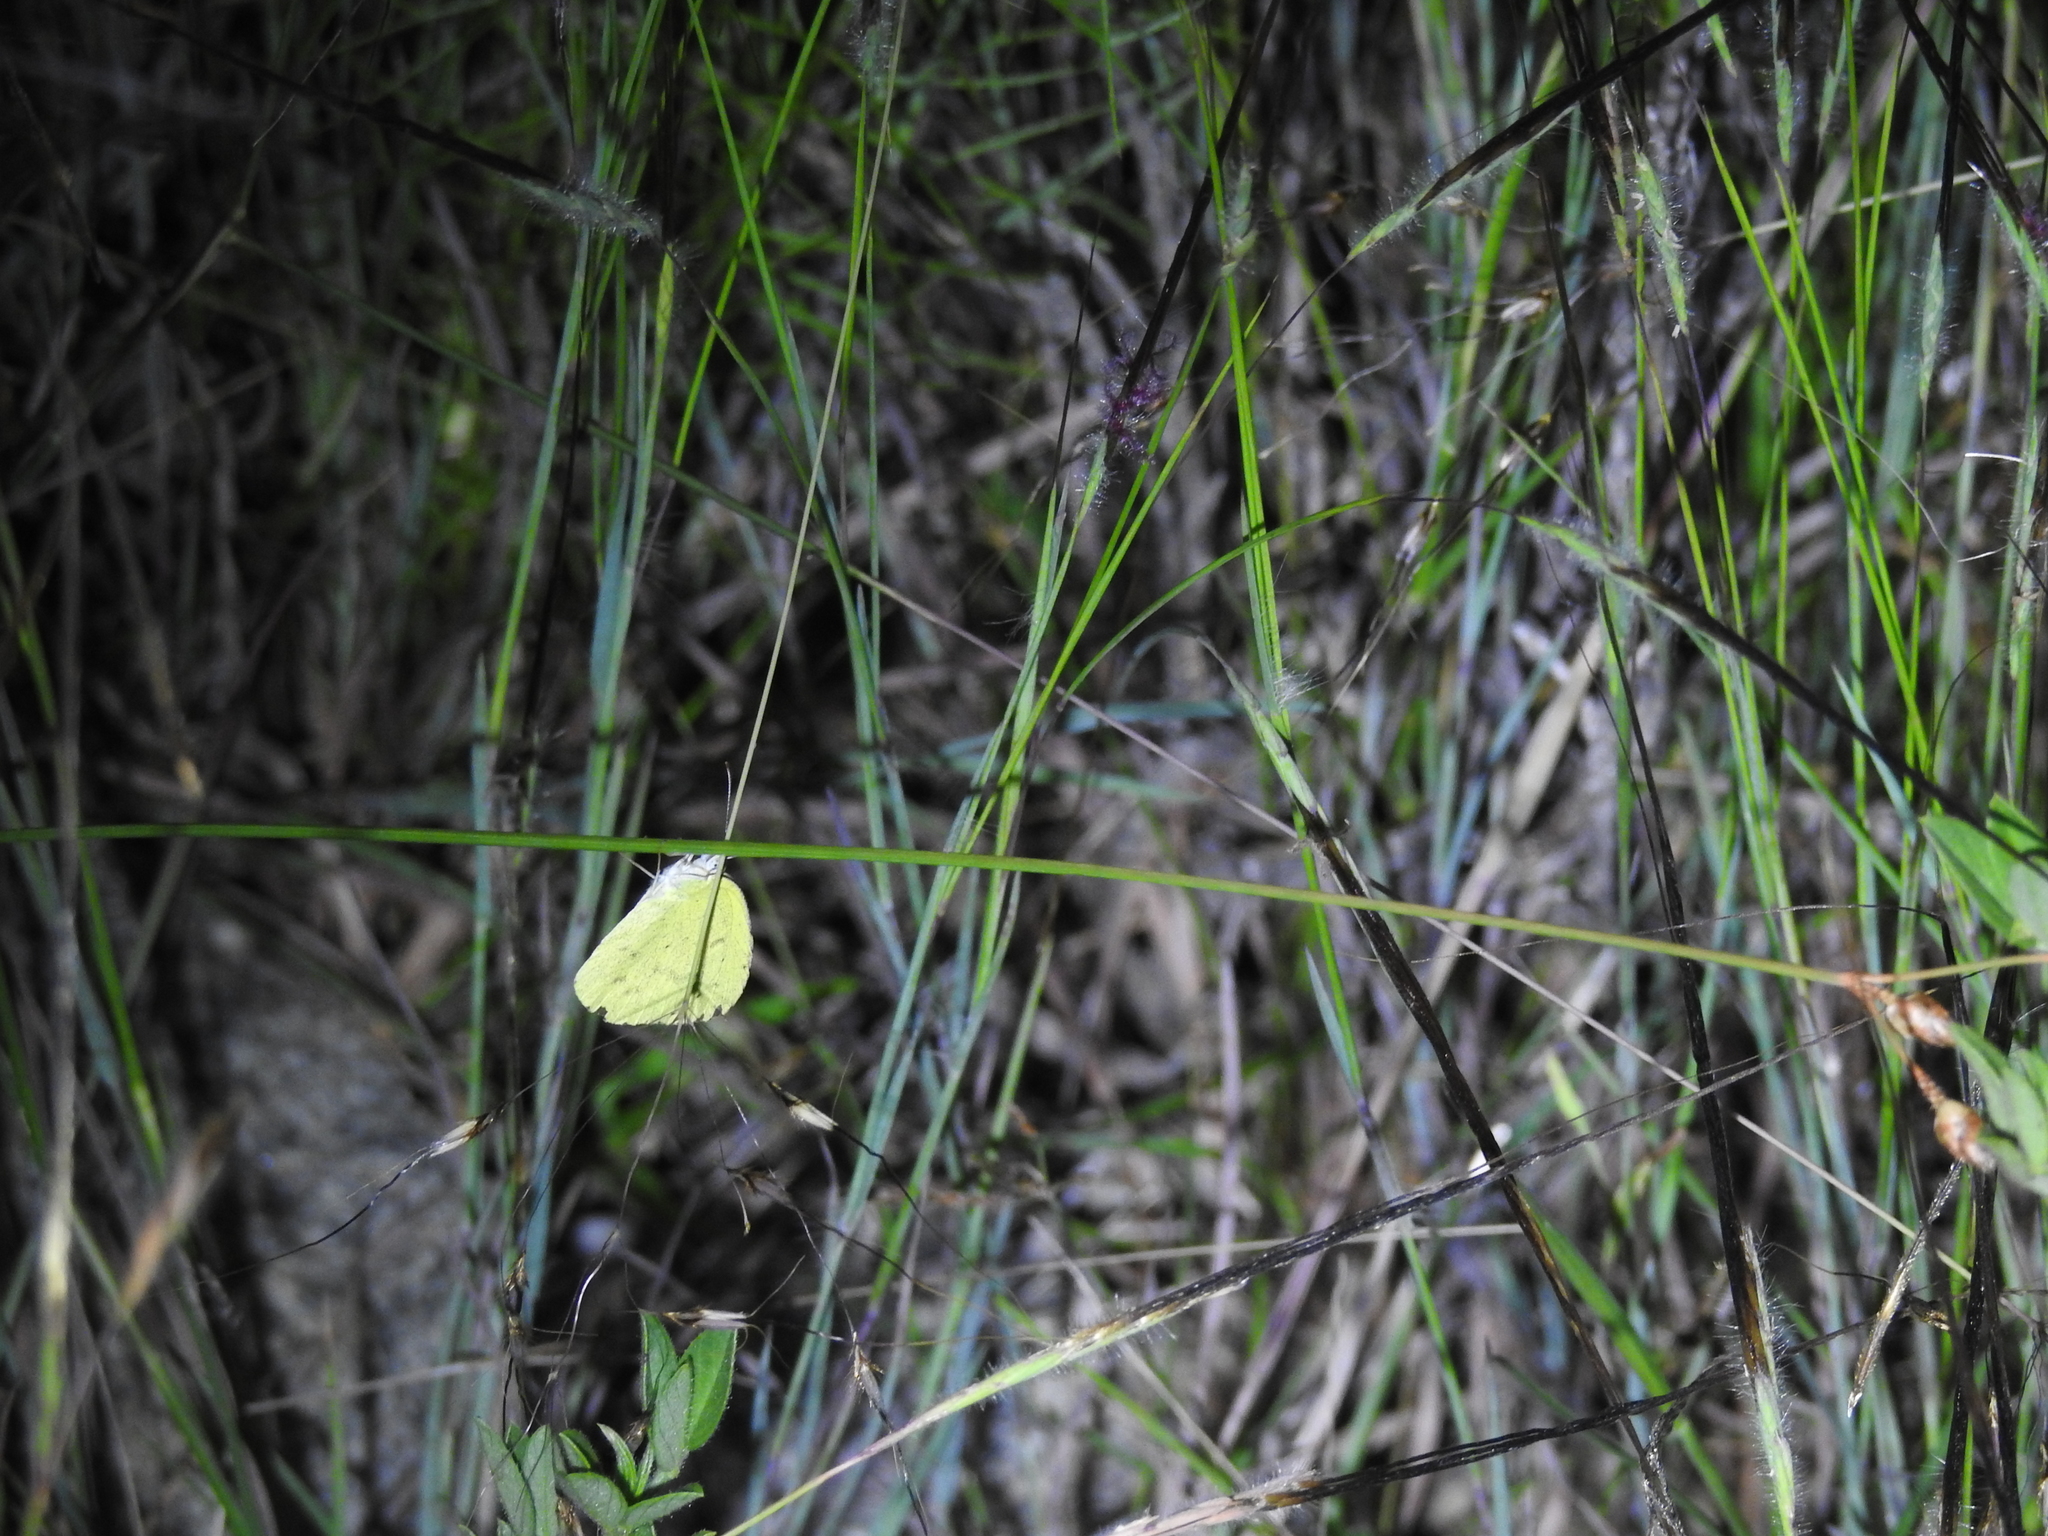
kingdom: Animalia
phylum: Arthropoda
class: Insecta
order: Lepidoptera
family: Pieridae
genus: Eurema
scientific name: Eurema brigitta
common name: Small grass yellow
